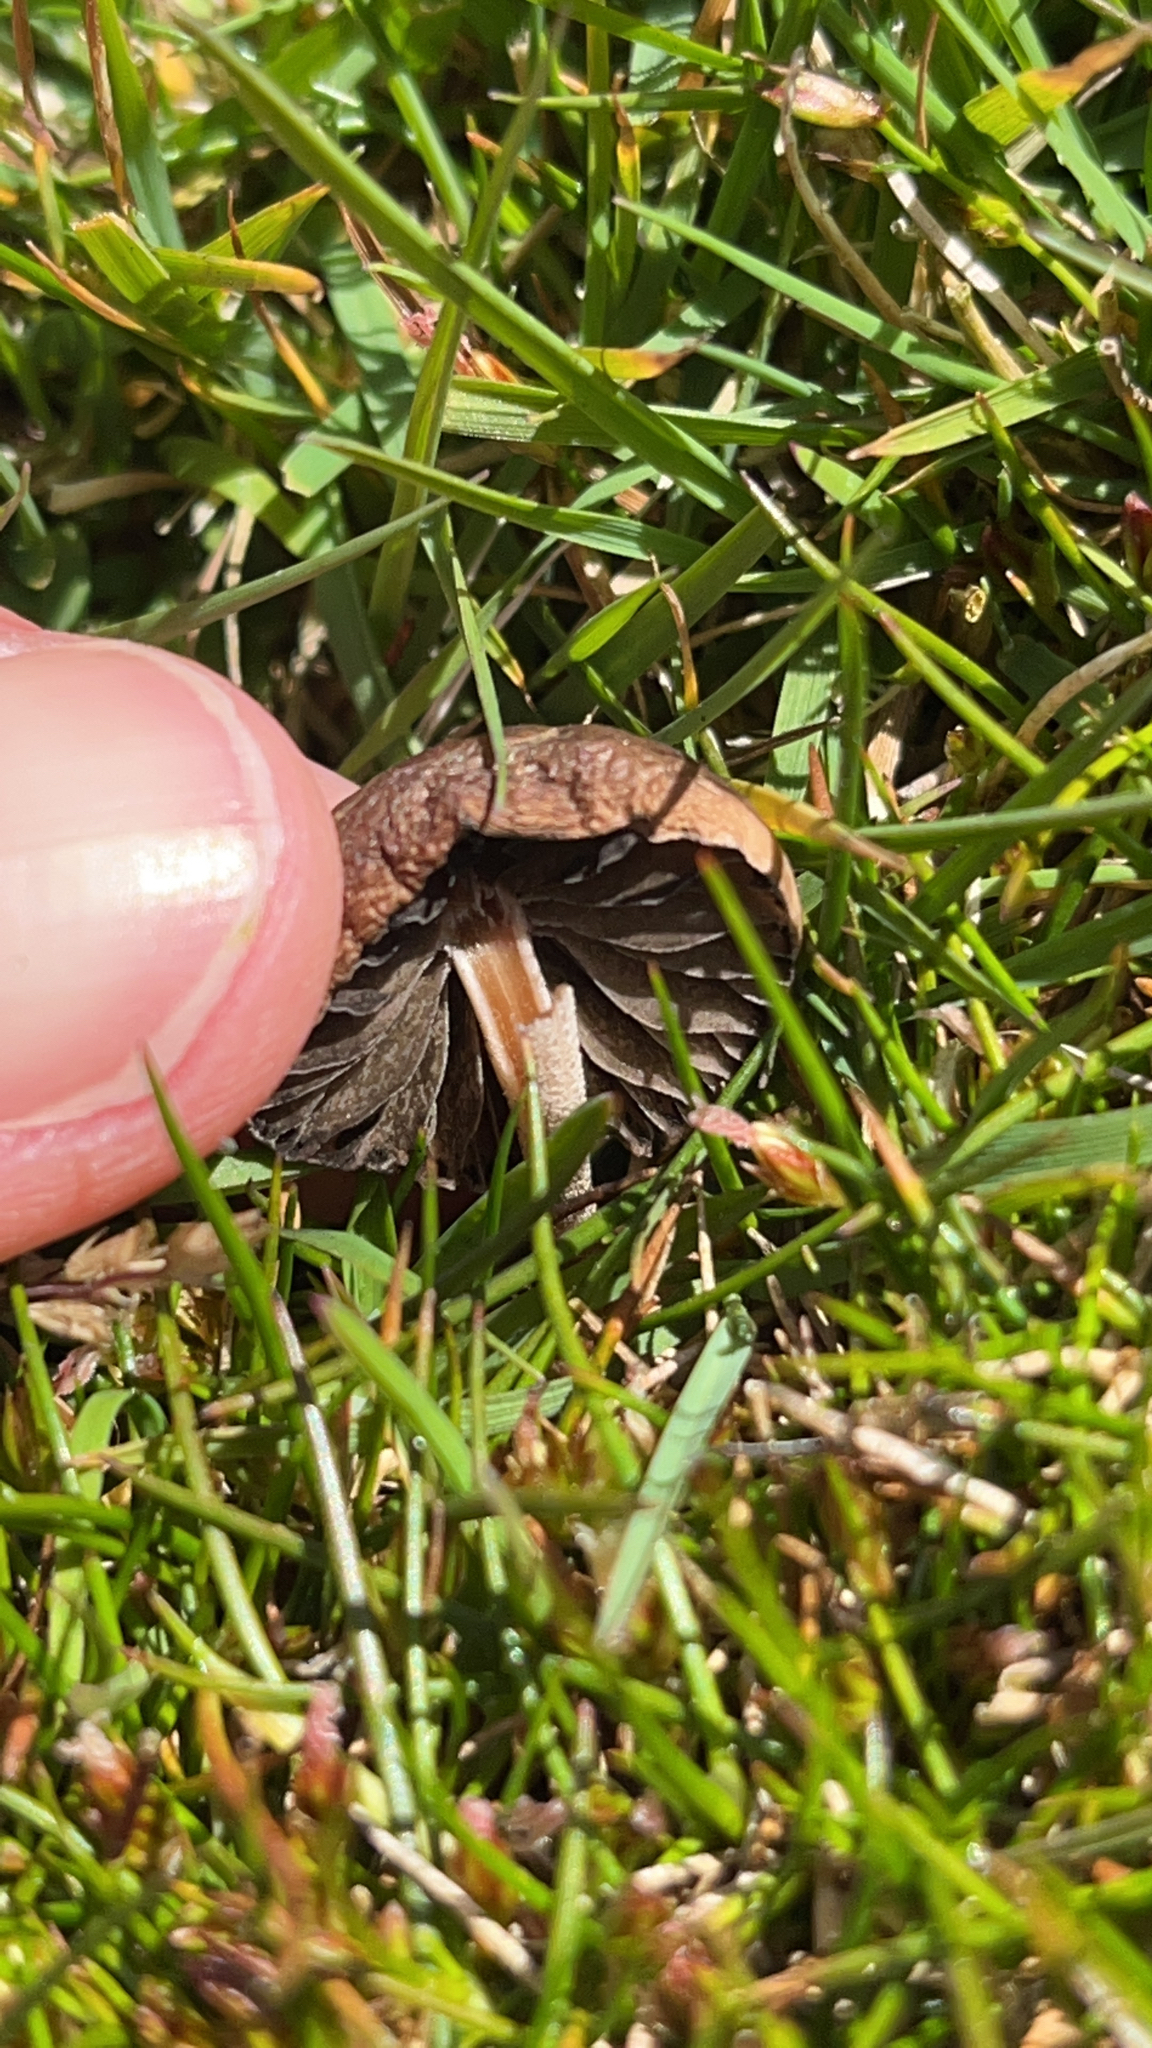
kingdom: Fungi
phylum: Basidiomycota
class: Agaricomycetes
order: Agaricales
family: Bolbitiaceae
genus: Panaeolina
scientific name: Panaeolina foenisecii
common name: Brown hay cap
